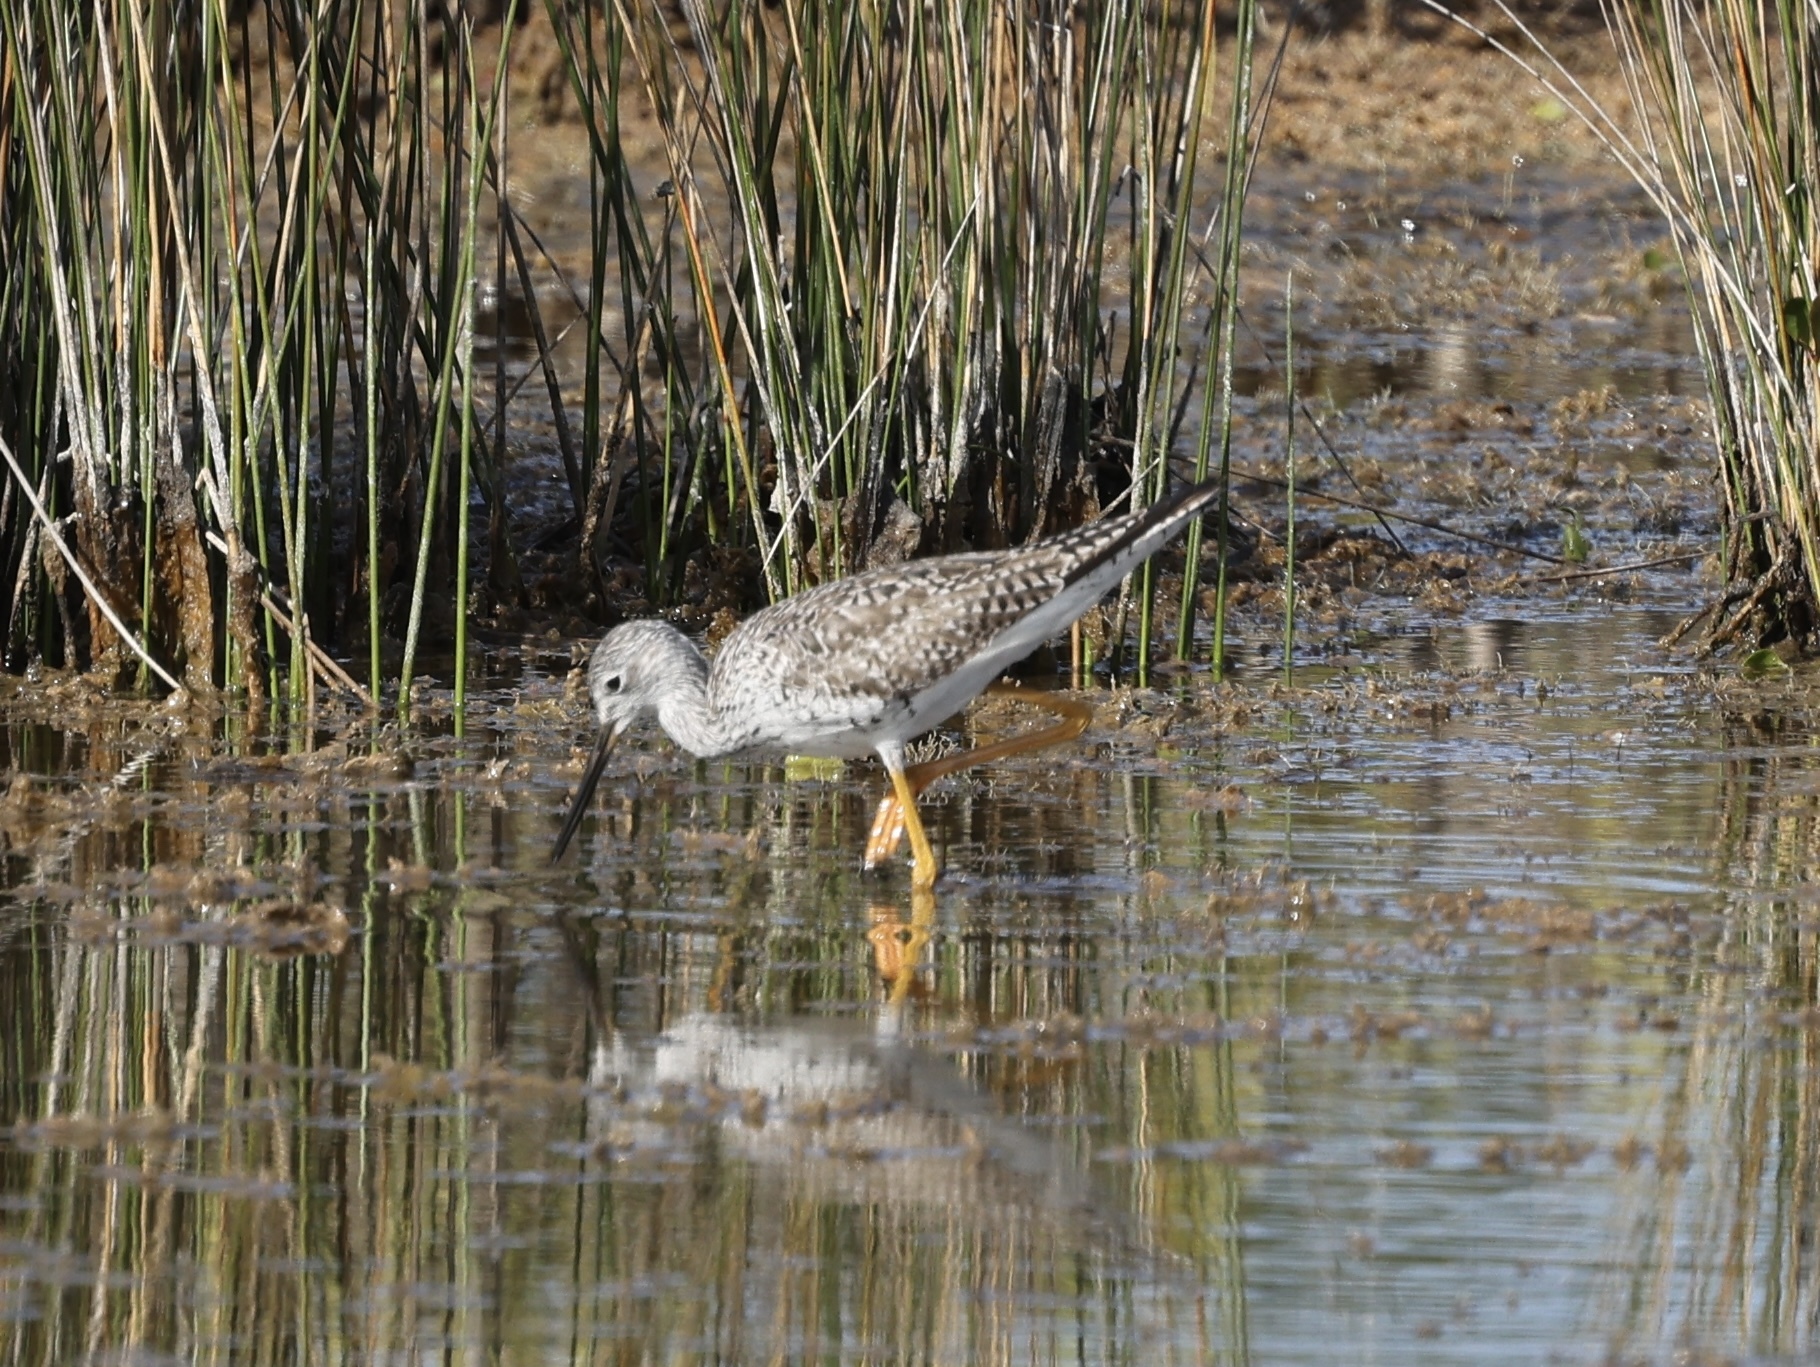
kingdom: Animalia
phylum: Chordata
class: Aves
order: Charadriiformes
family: Scolopacidae
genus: Tringa
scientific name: Tringa melanoleuca
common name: Greater yellowlegs
